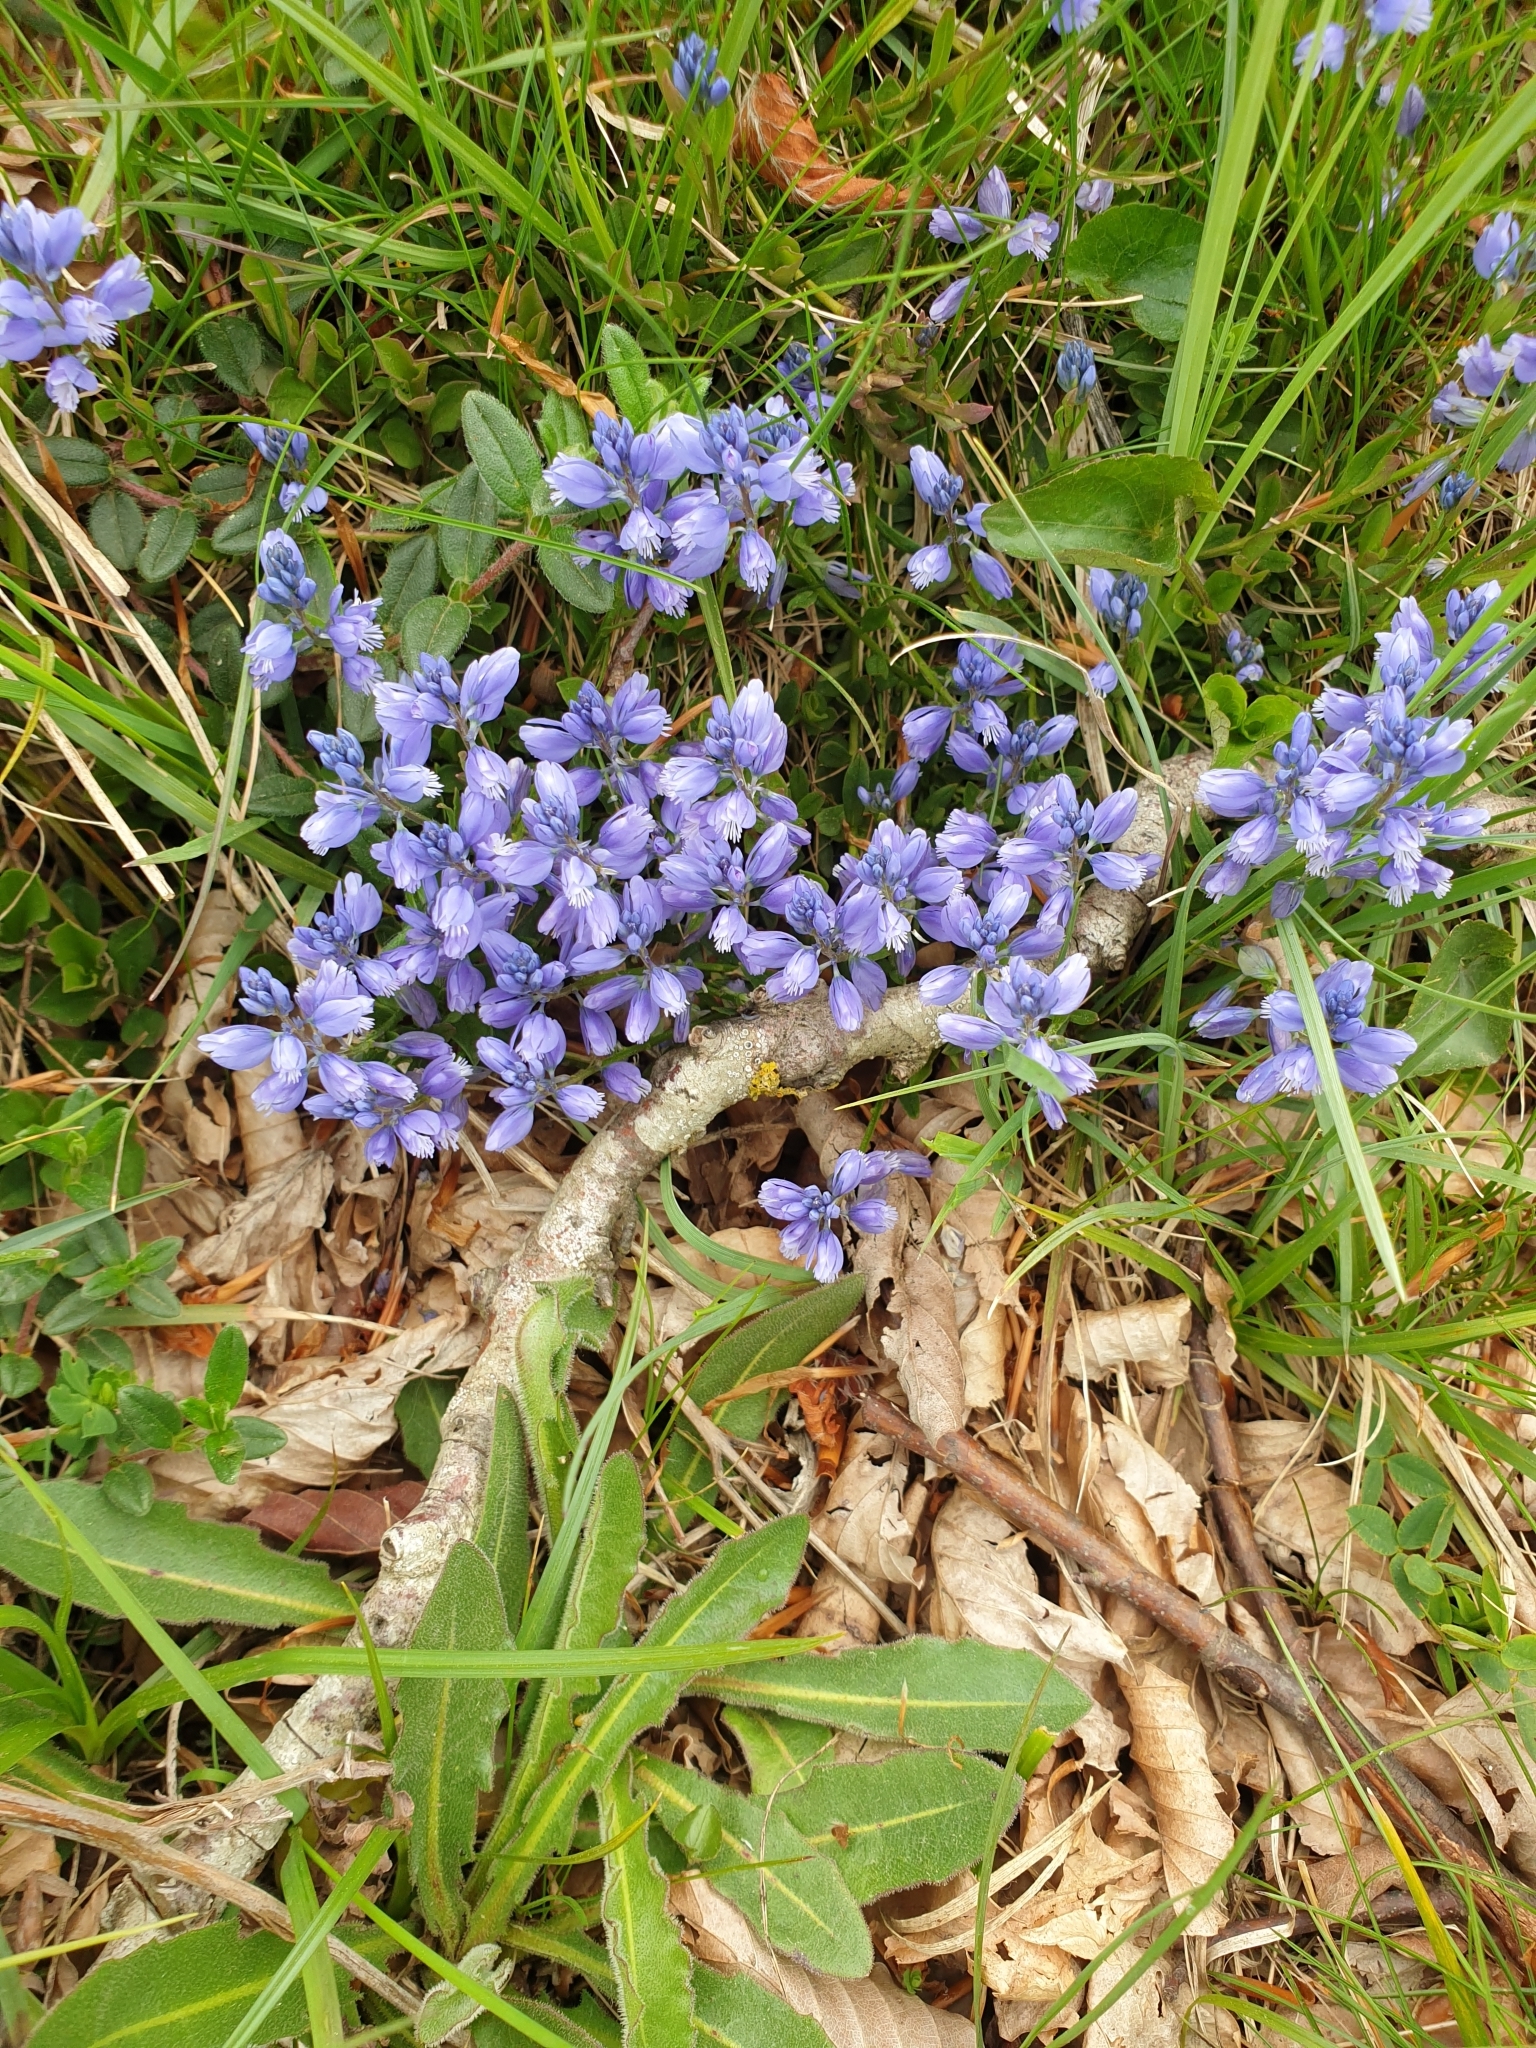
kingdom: Plantae
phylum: Tracheophyta
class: Magnoliopsida
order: Fabales
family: Polygalaceae
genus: Polygala
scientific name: Polygala vulgaris
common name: Common milkwort
